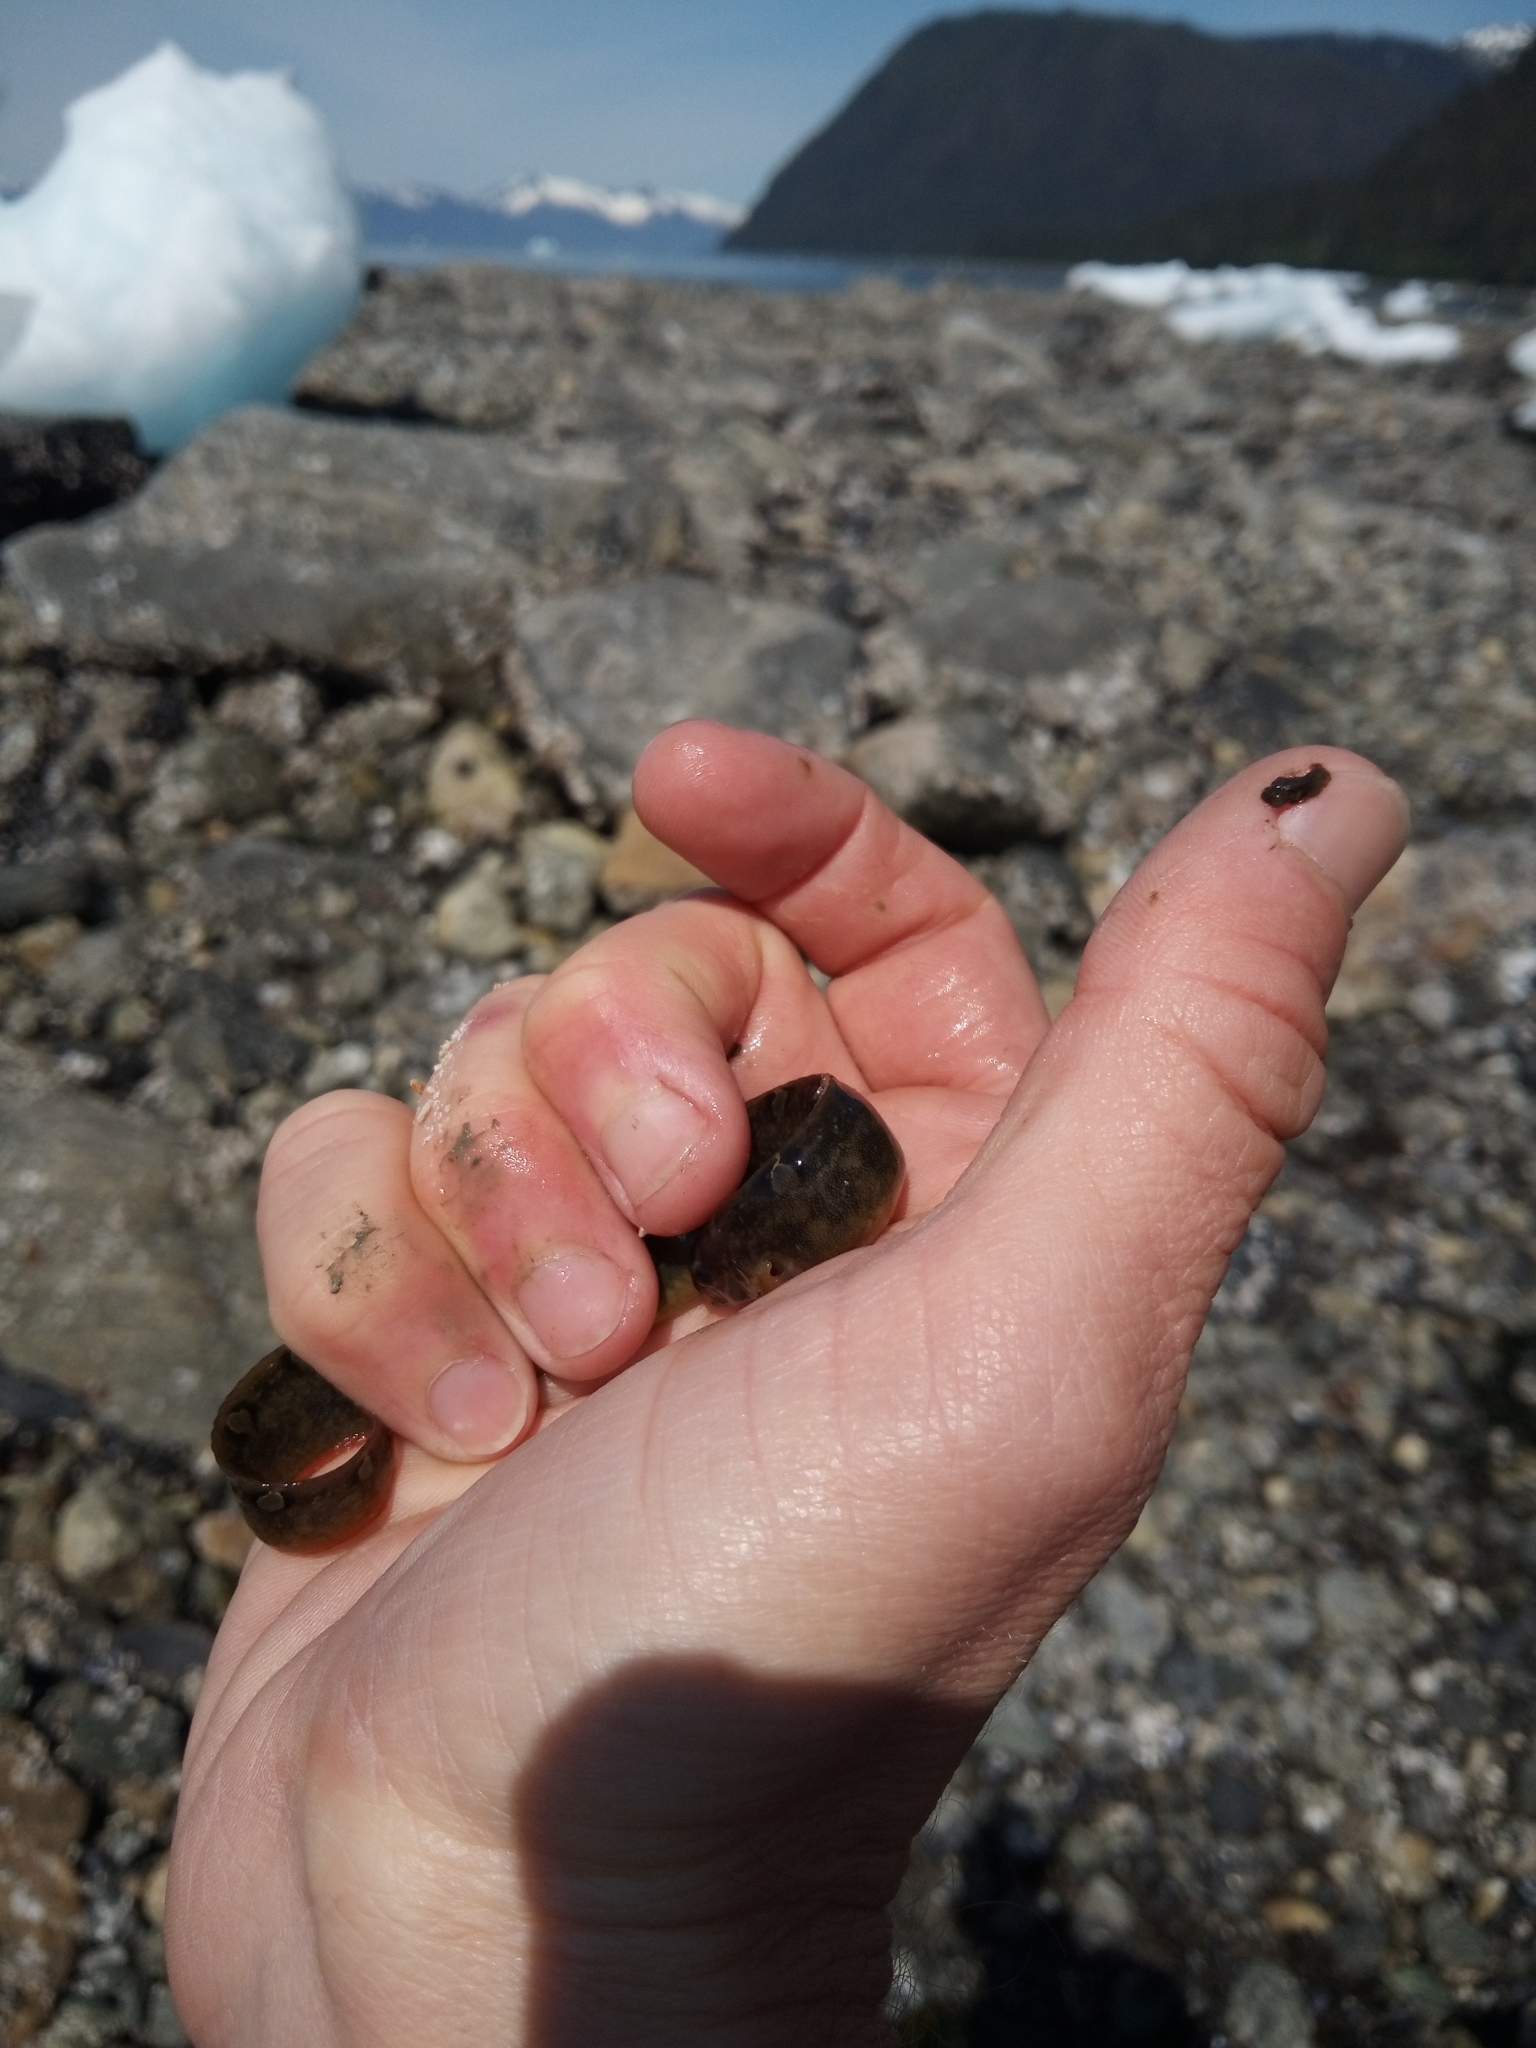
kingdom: Animalia
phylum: Chordata
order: Perciformes
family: Pholidae
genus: Pholis
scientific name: Pholis laeta
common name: Crescent gunnel
